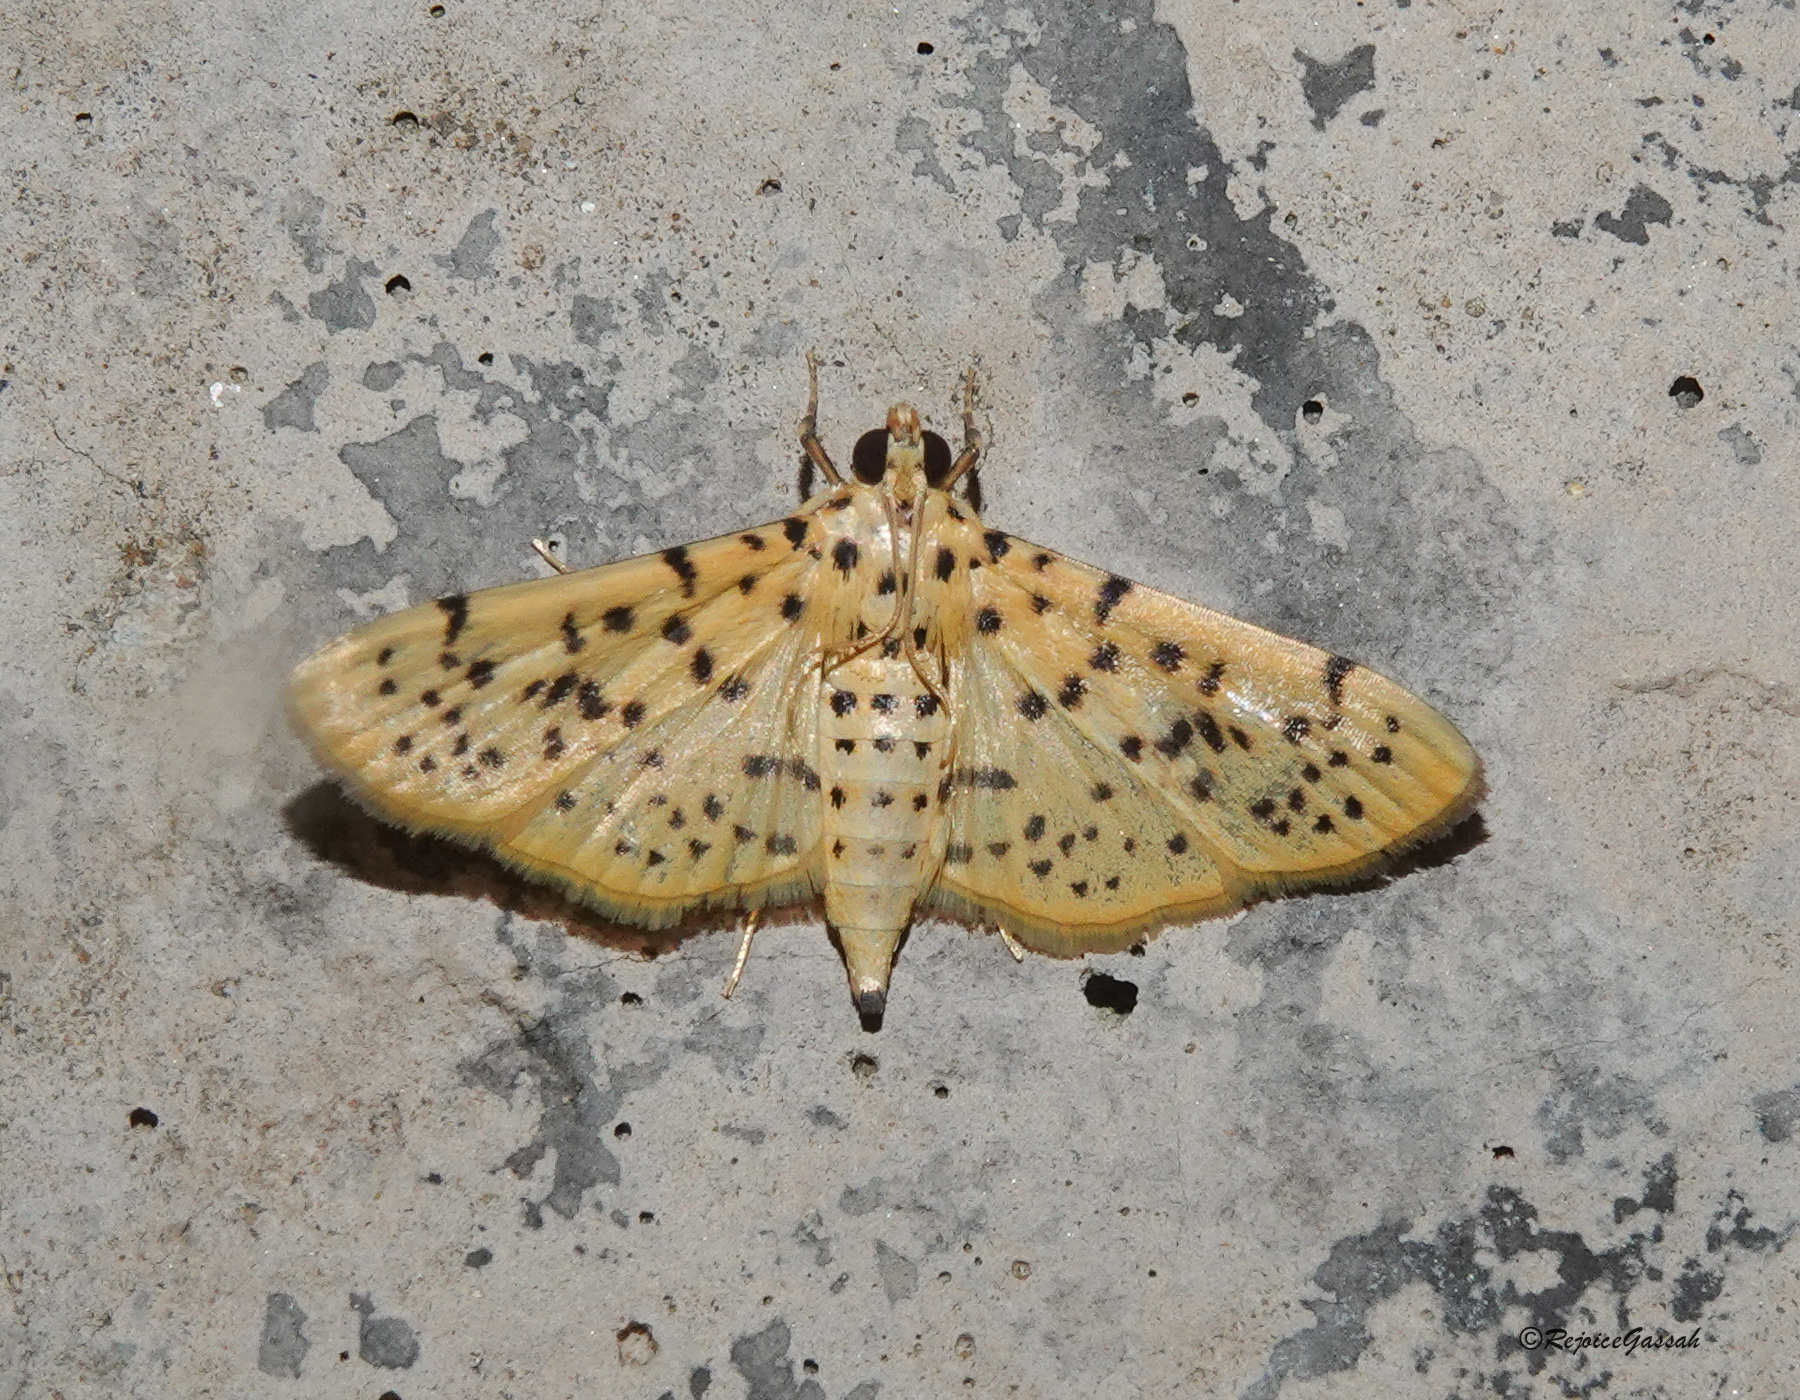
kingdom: Animalia
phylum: Arthropoda
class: Insecta
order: Lepidoptera
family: Crambidae
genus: Conogethes
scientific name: Conogethes punctiferalis
